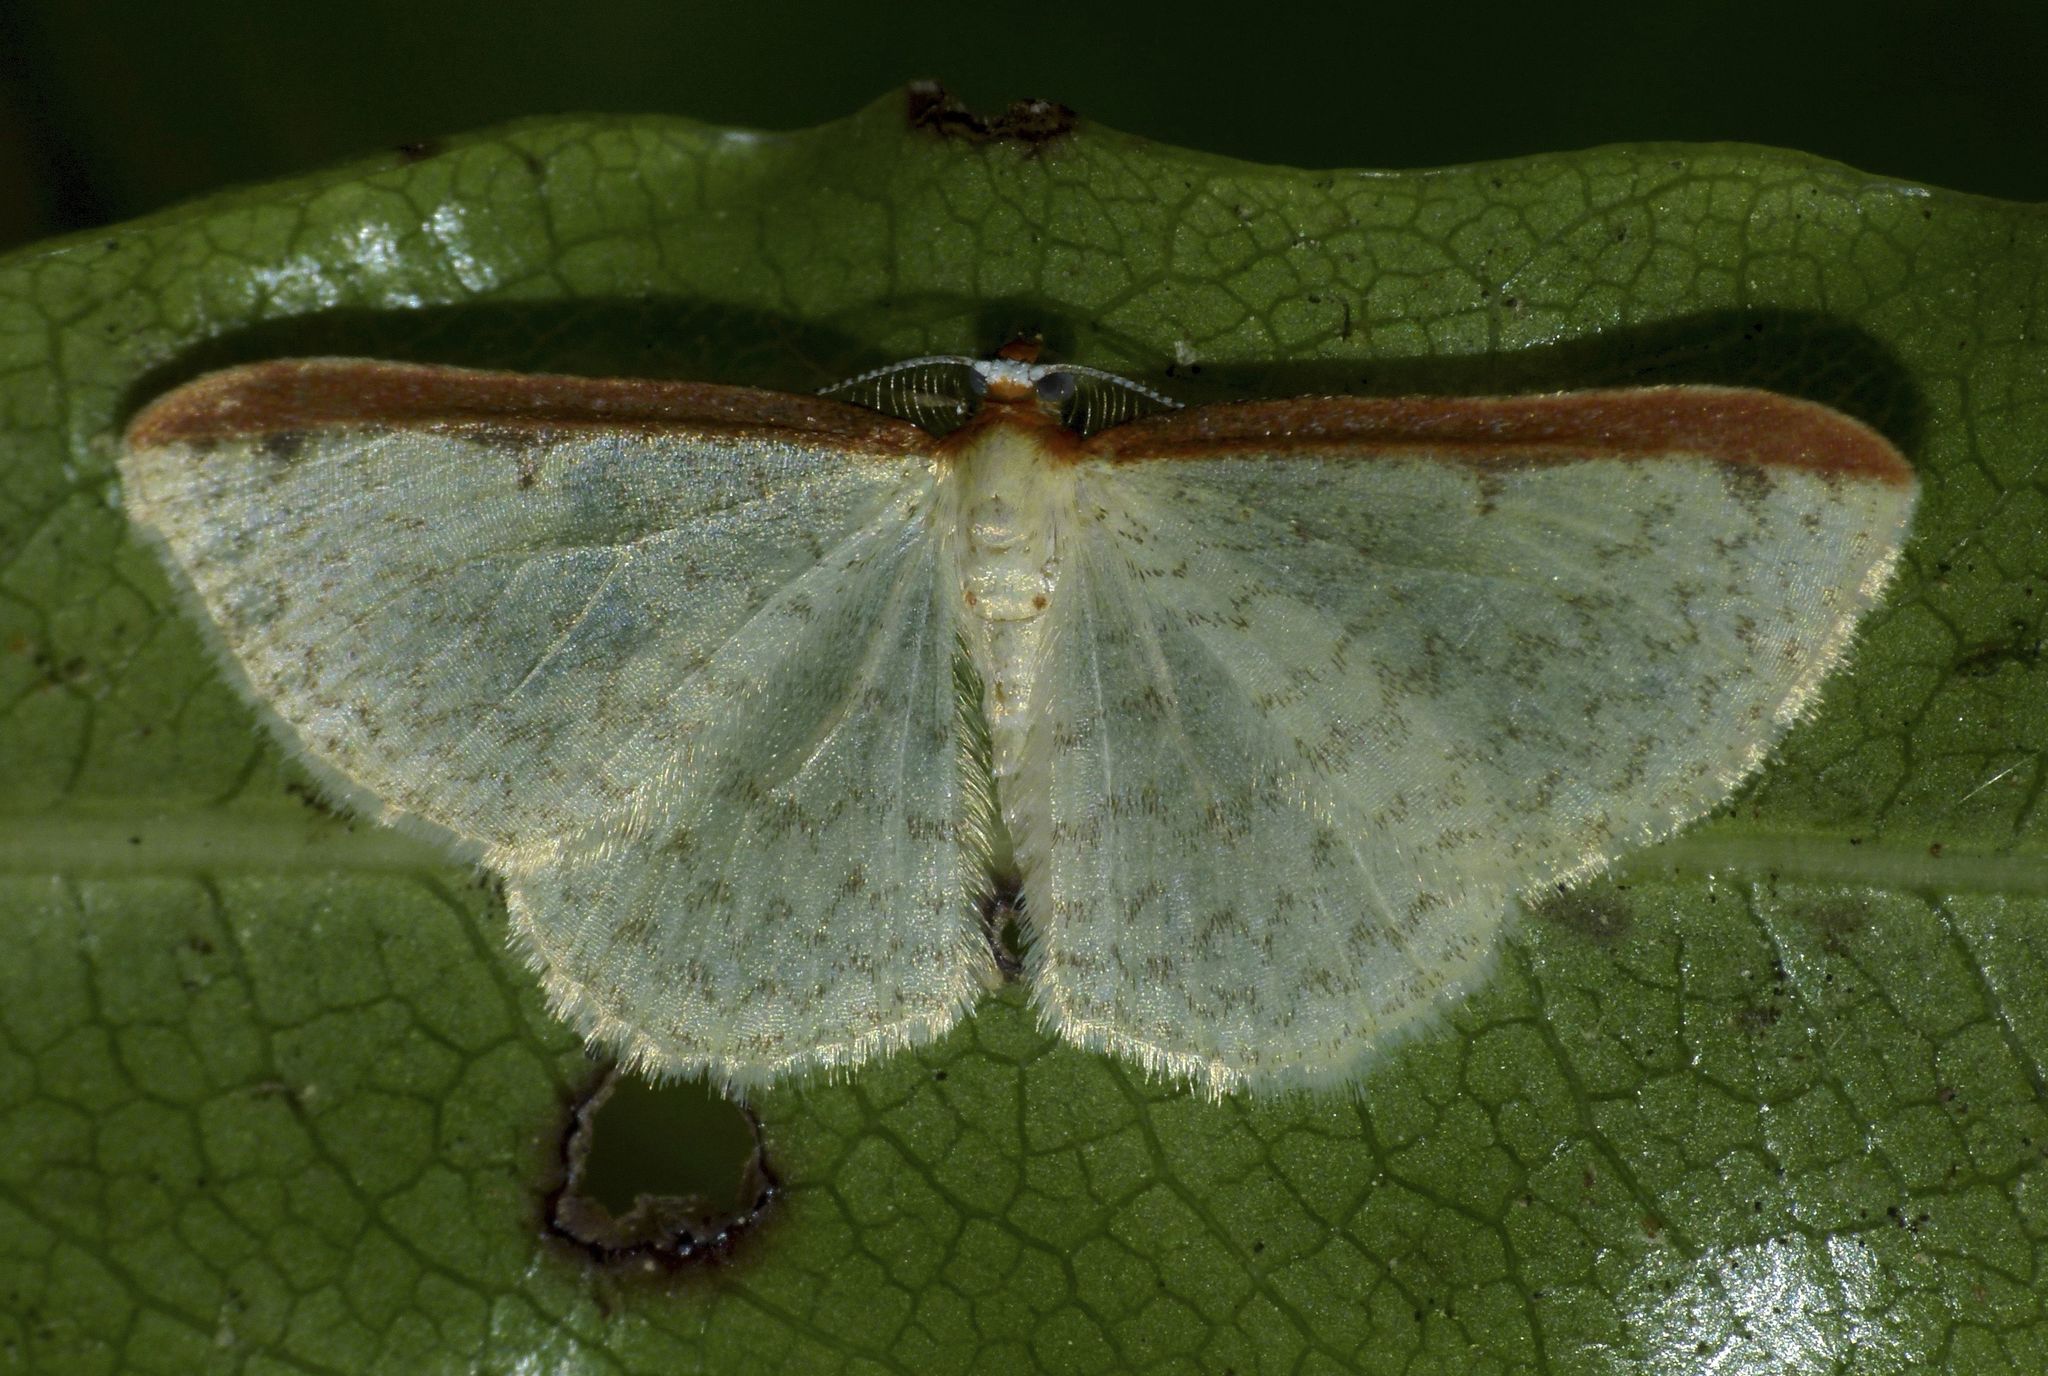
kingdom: Animalia
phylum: Arthropoda
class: Insecta
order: Lepidoptera
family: Geometridae
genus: Epiphryne
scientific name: Epiphryne undosata
